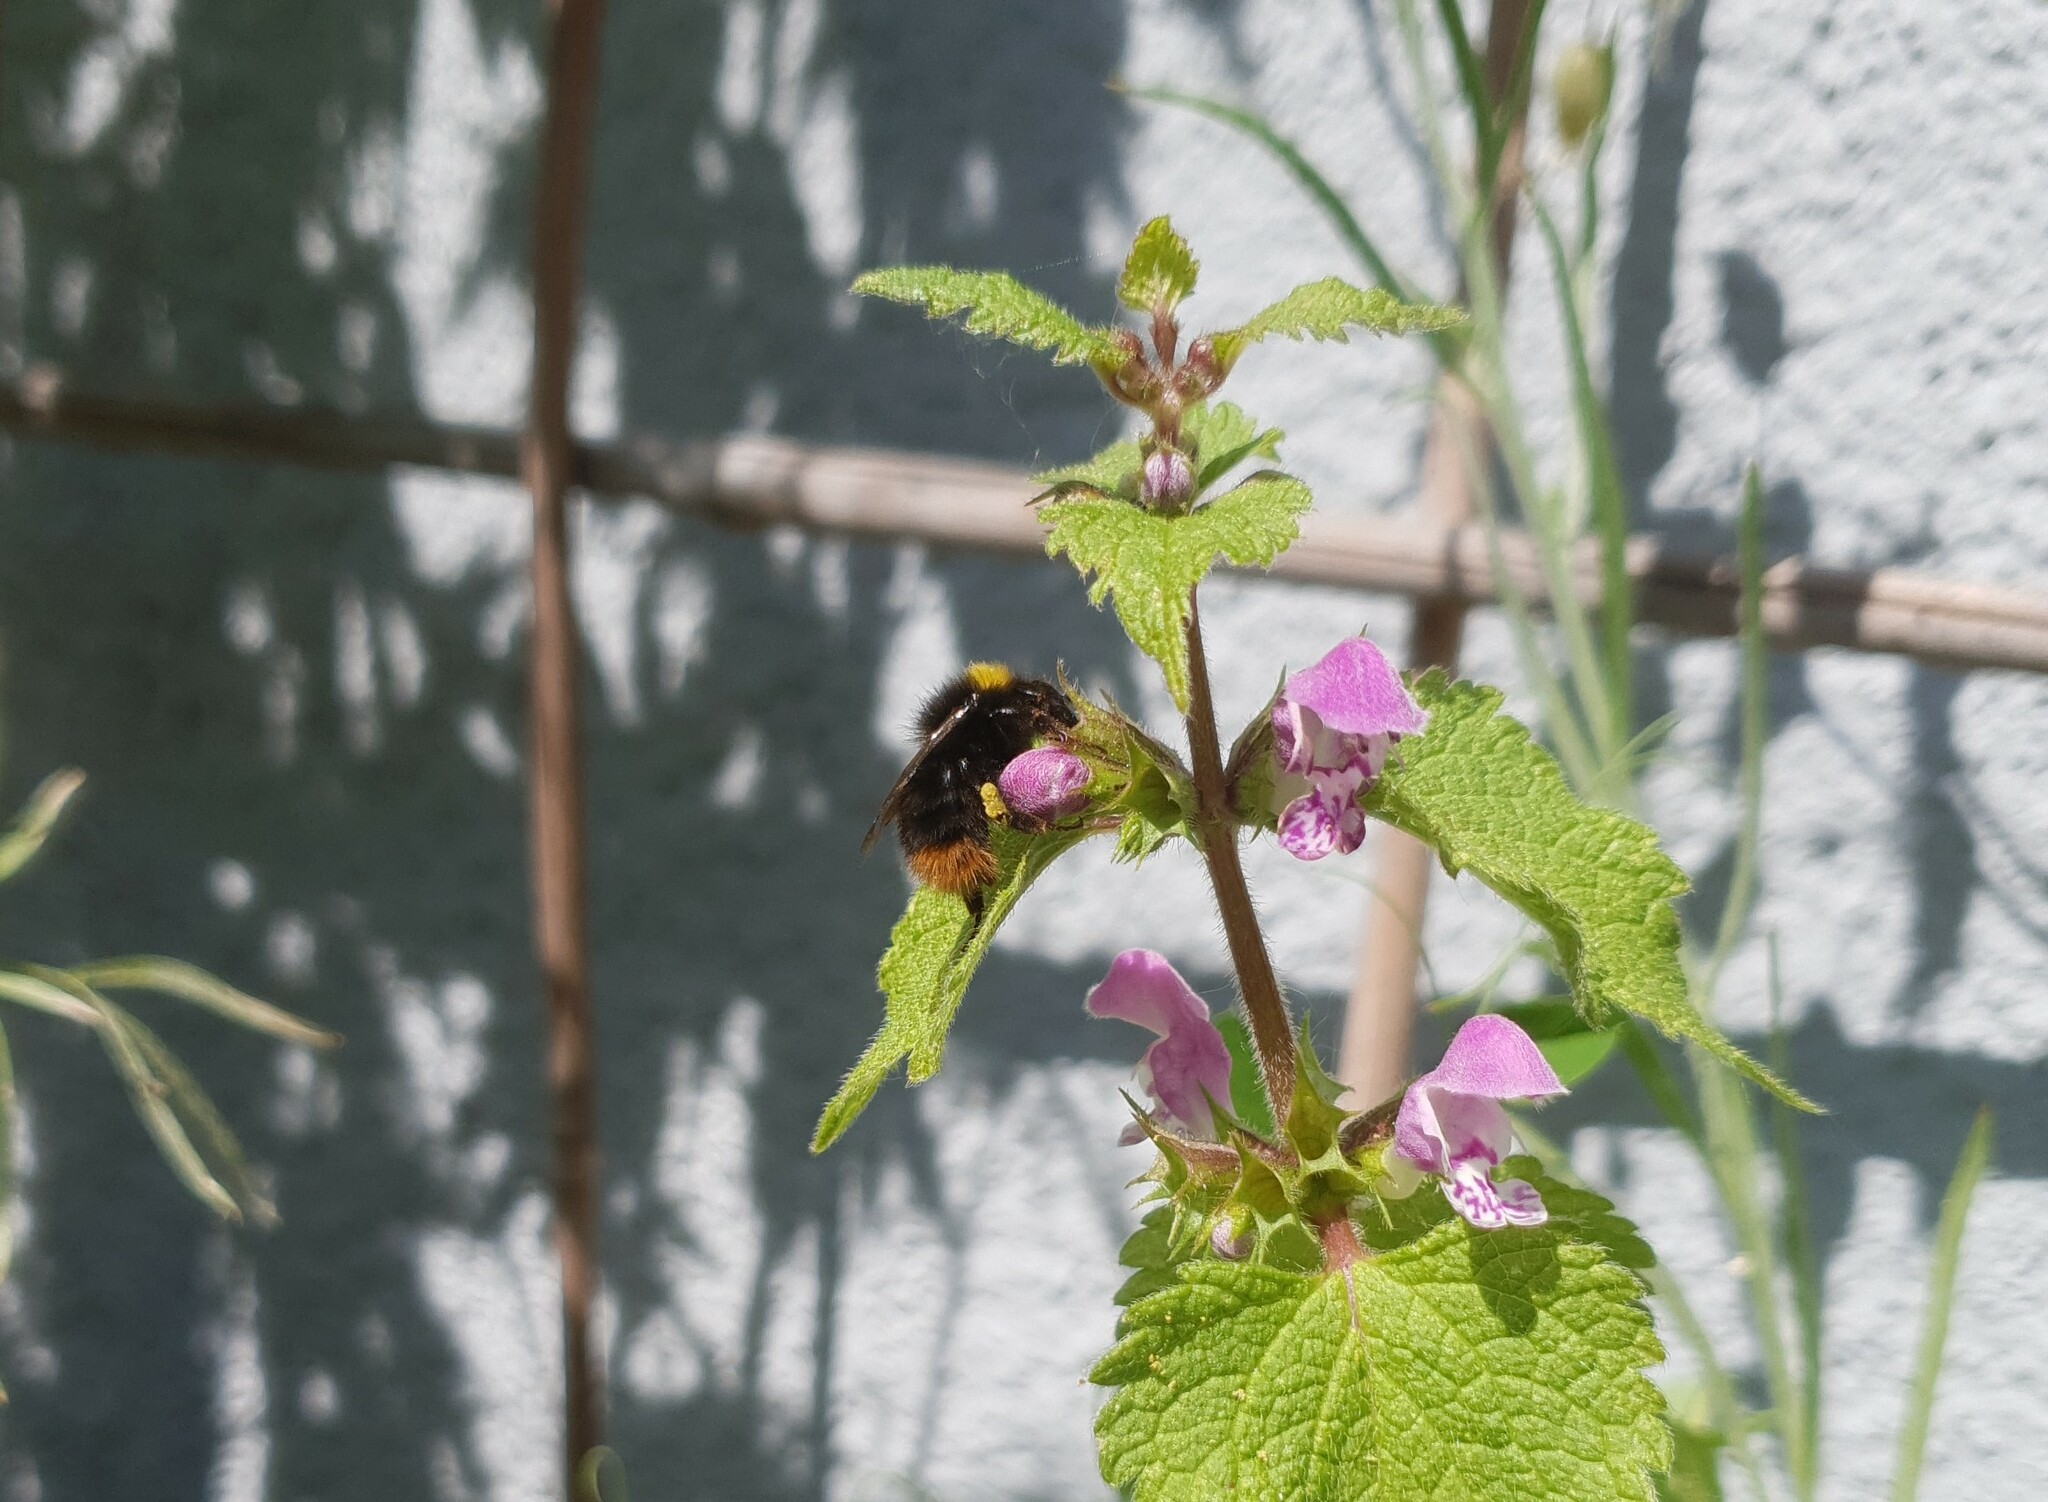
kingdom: Animalia
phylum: Arthropoda
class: Insecta
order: Hymenoptera
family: Apidae
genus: Bombus
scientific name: Bombus pratorum
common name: Early humble-bee
